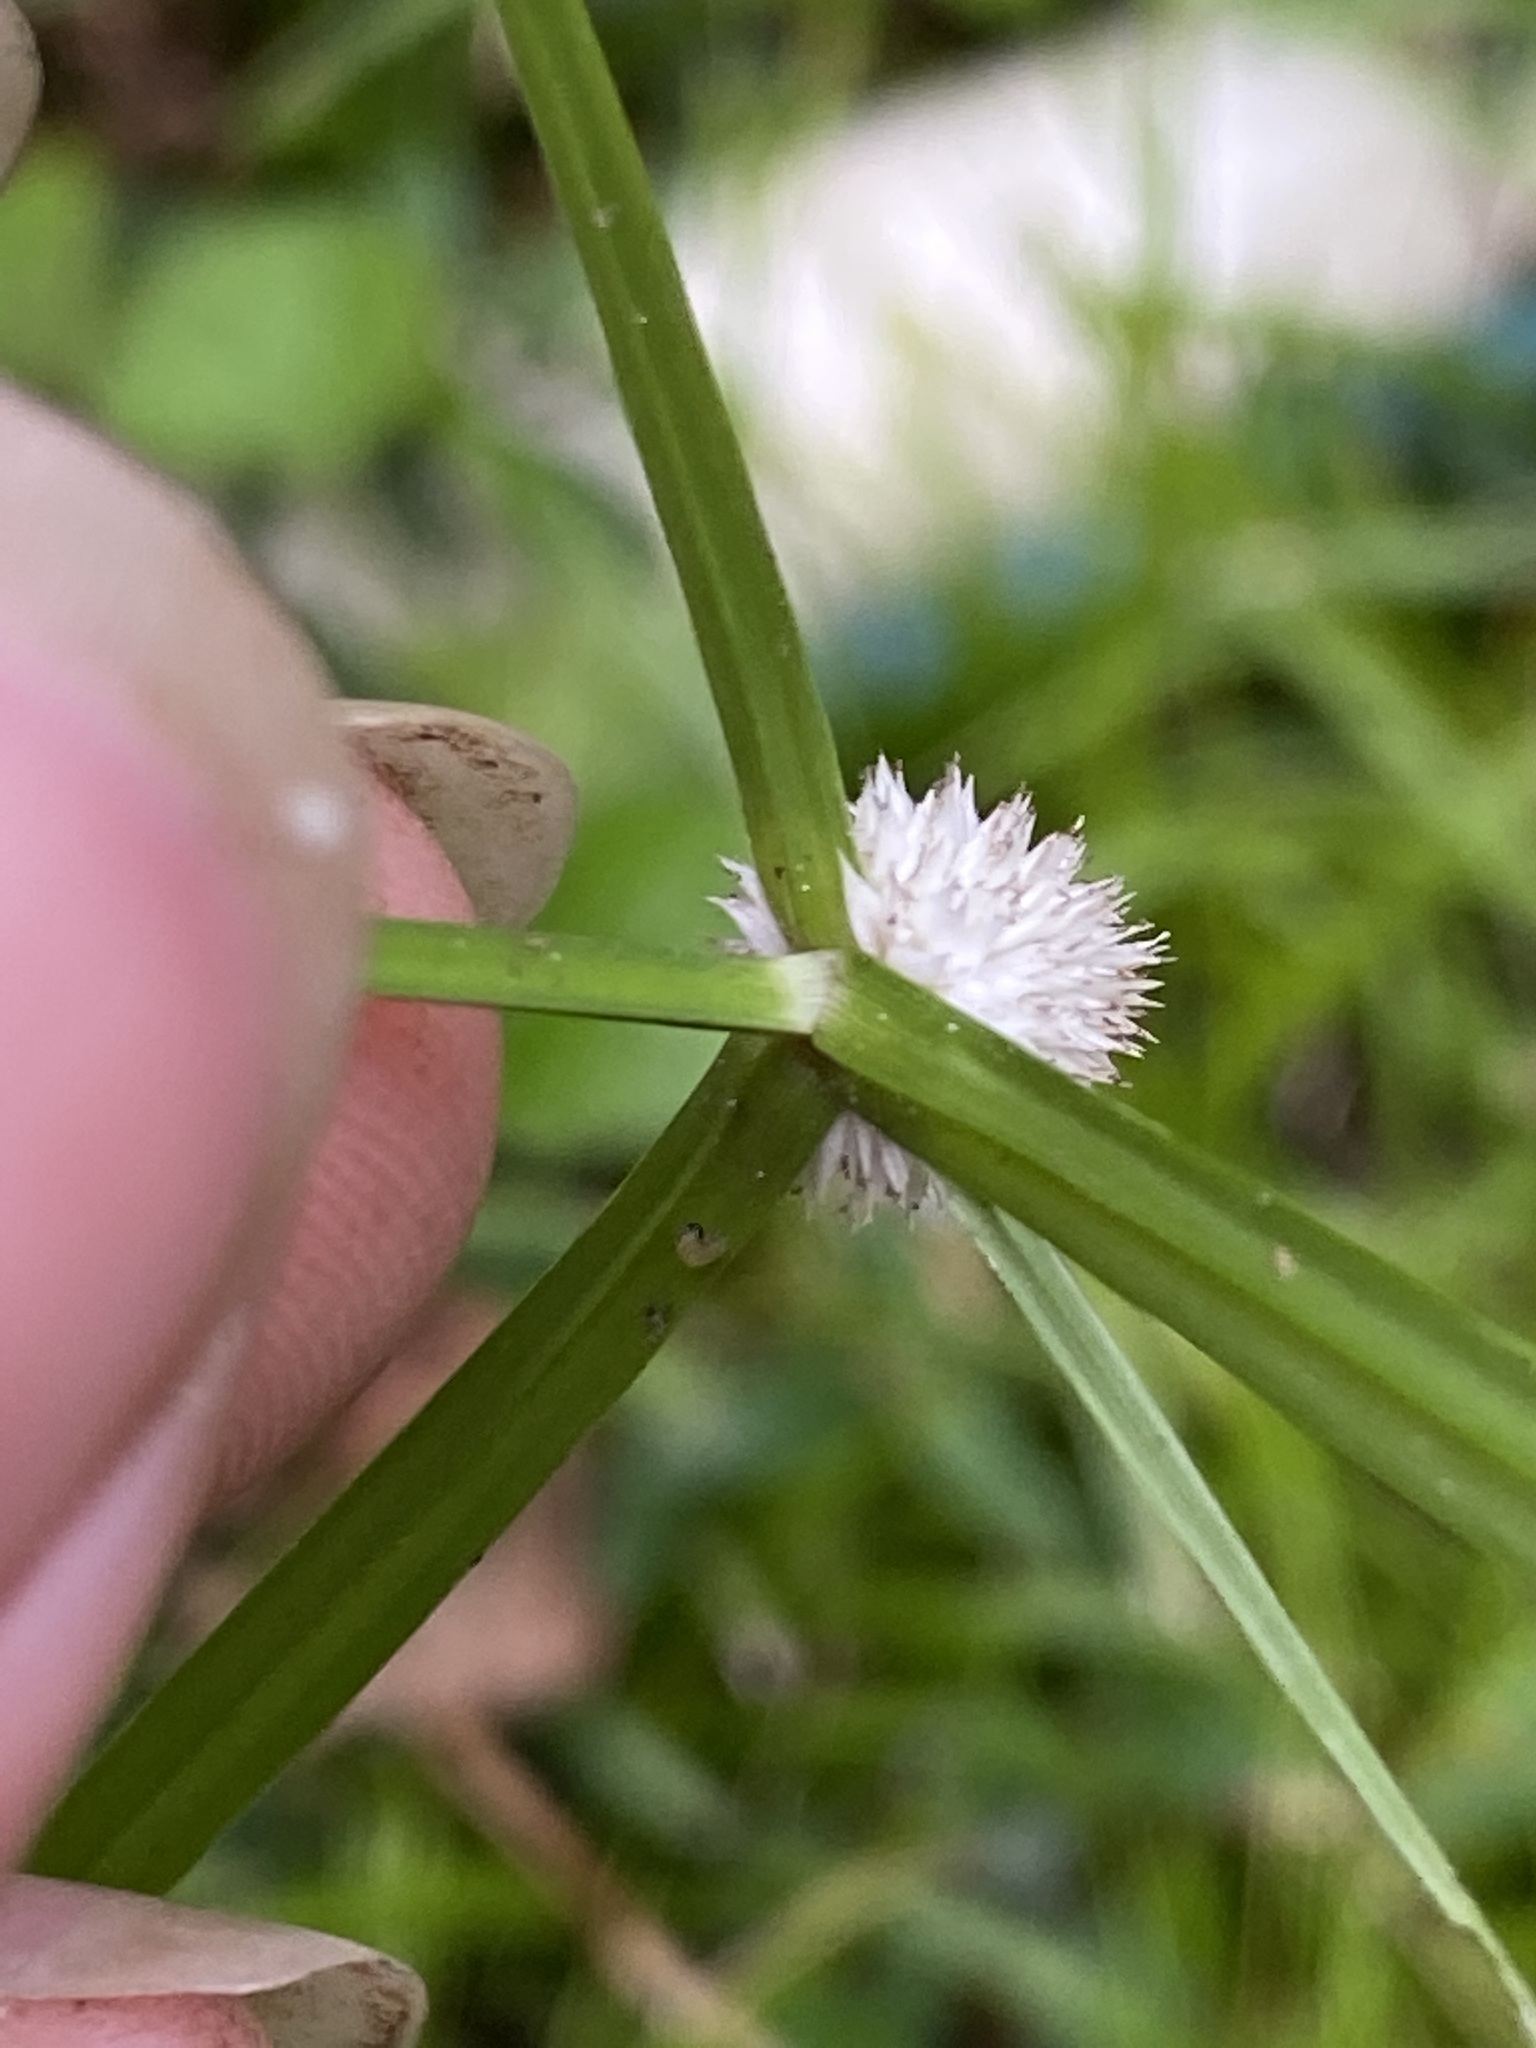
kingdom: Plantae
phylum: Tracheophyta
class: Liliopsida
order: Poales
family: Cyperaceae
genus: Cyperus
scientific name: Cyperus mindorensis
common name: Flatsedge
